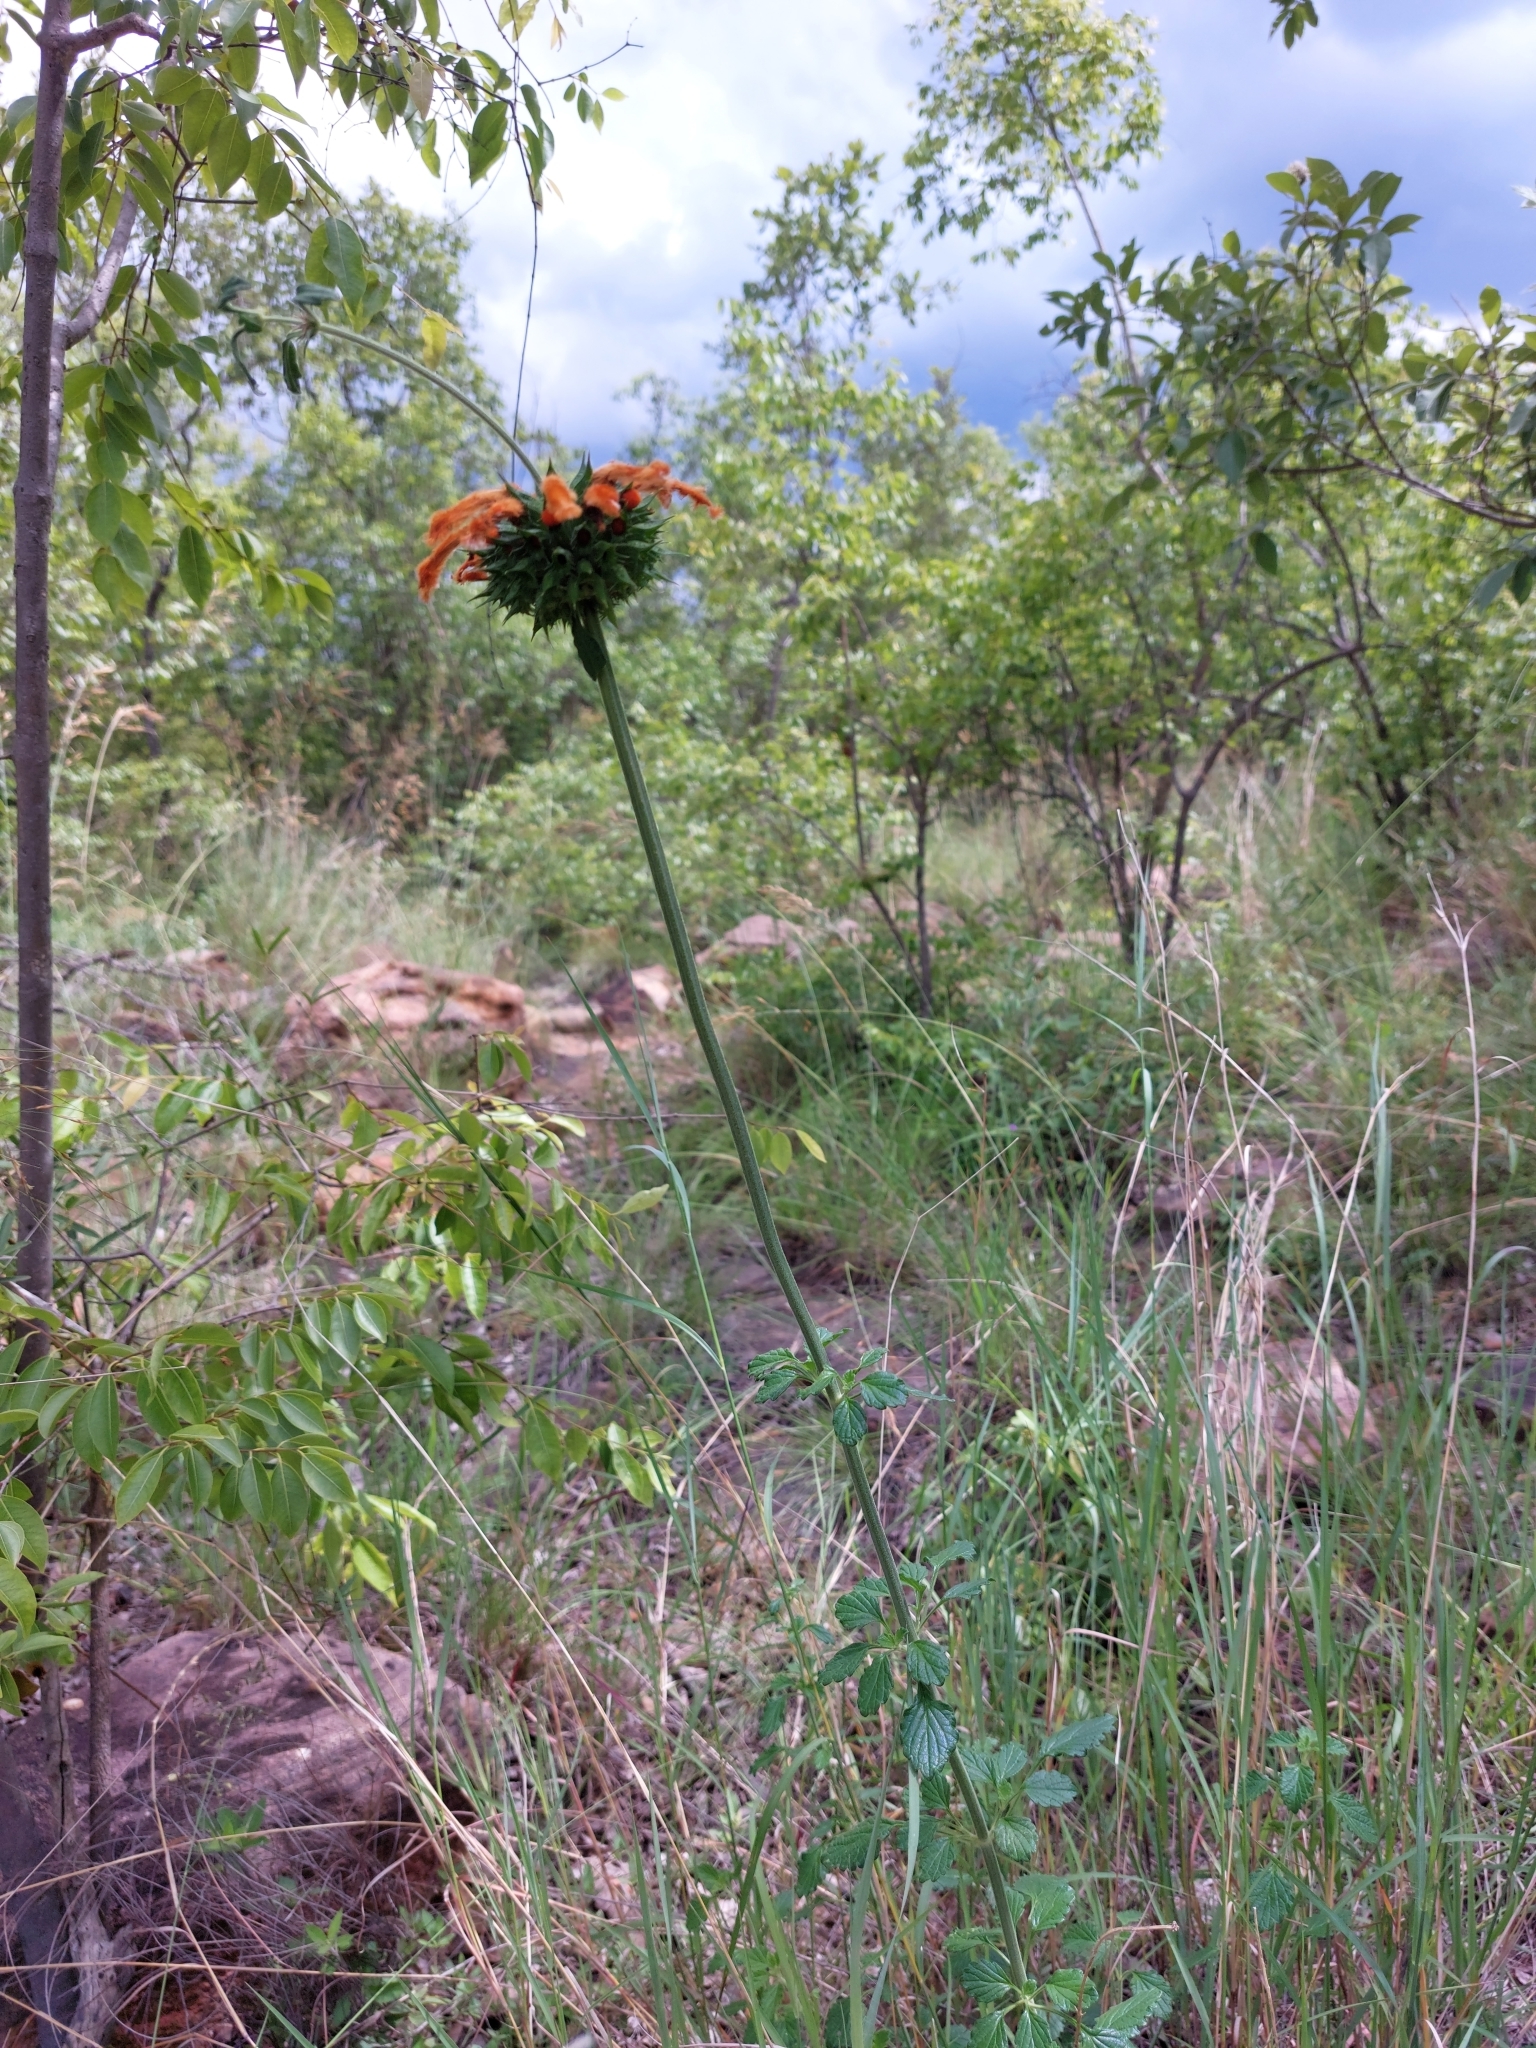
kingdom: Plantae
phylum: Tracheophyta
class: Magnoliopsida
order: Lamiales
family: Lamiaceae
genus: Leonotis
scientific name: Leonotis ocymifolia
